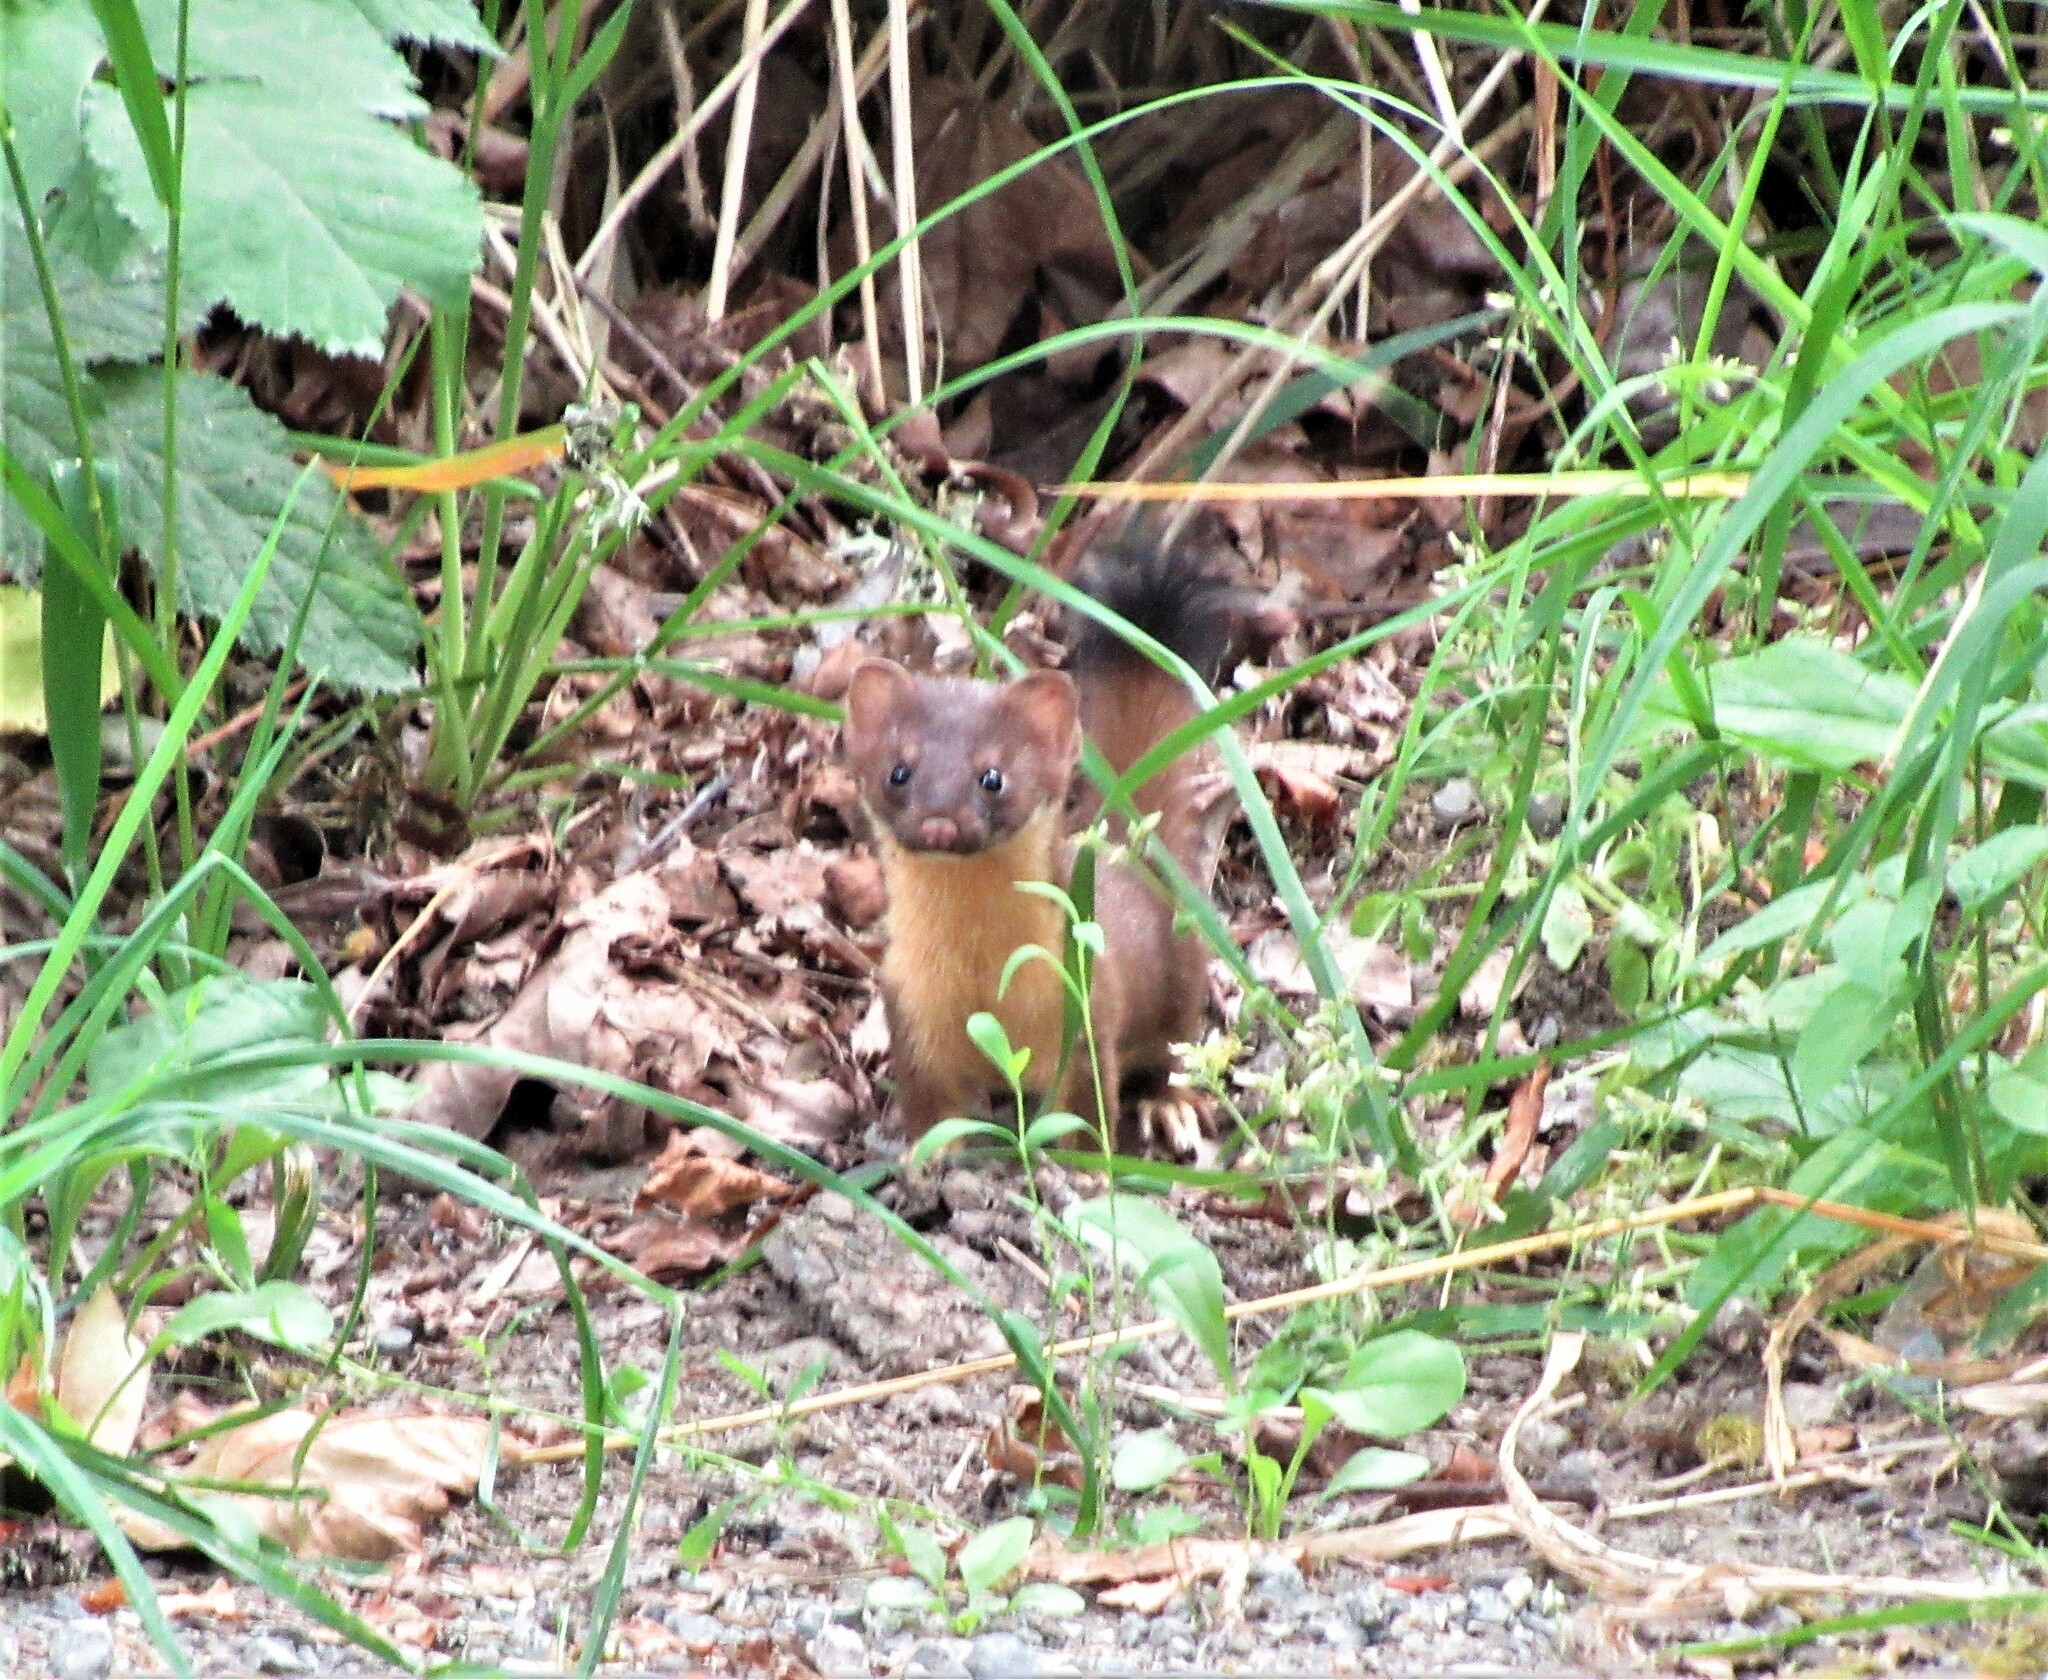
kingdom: Animalia
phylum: Chordata
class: Mammalia
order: Carnivora
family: Mustelidae
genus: Mustela
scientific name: Mustela
